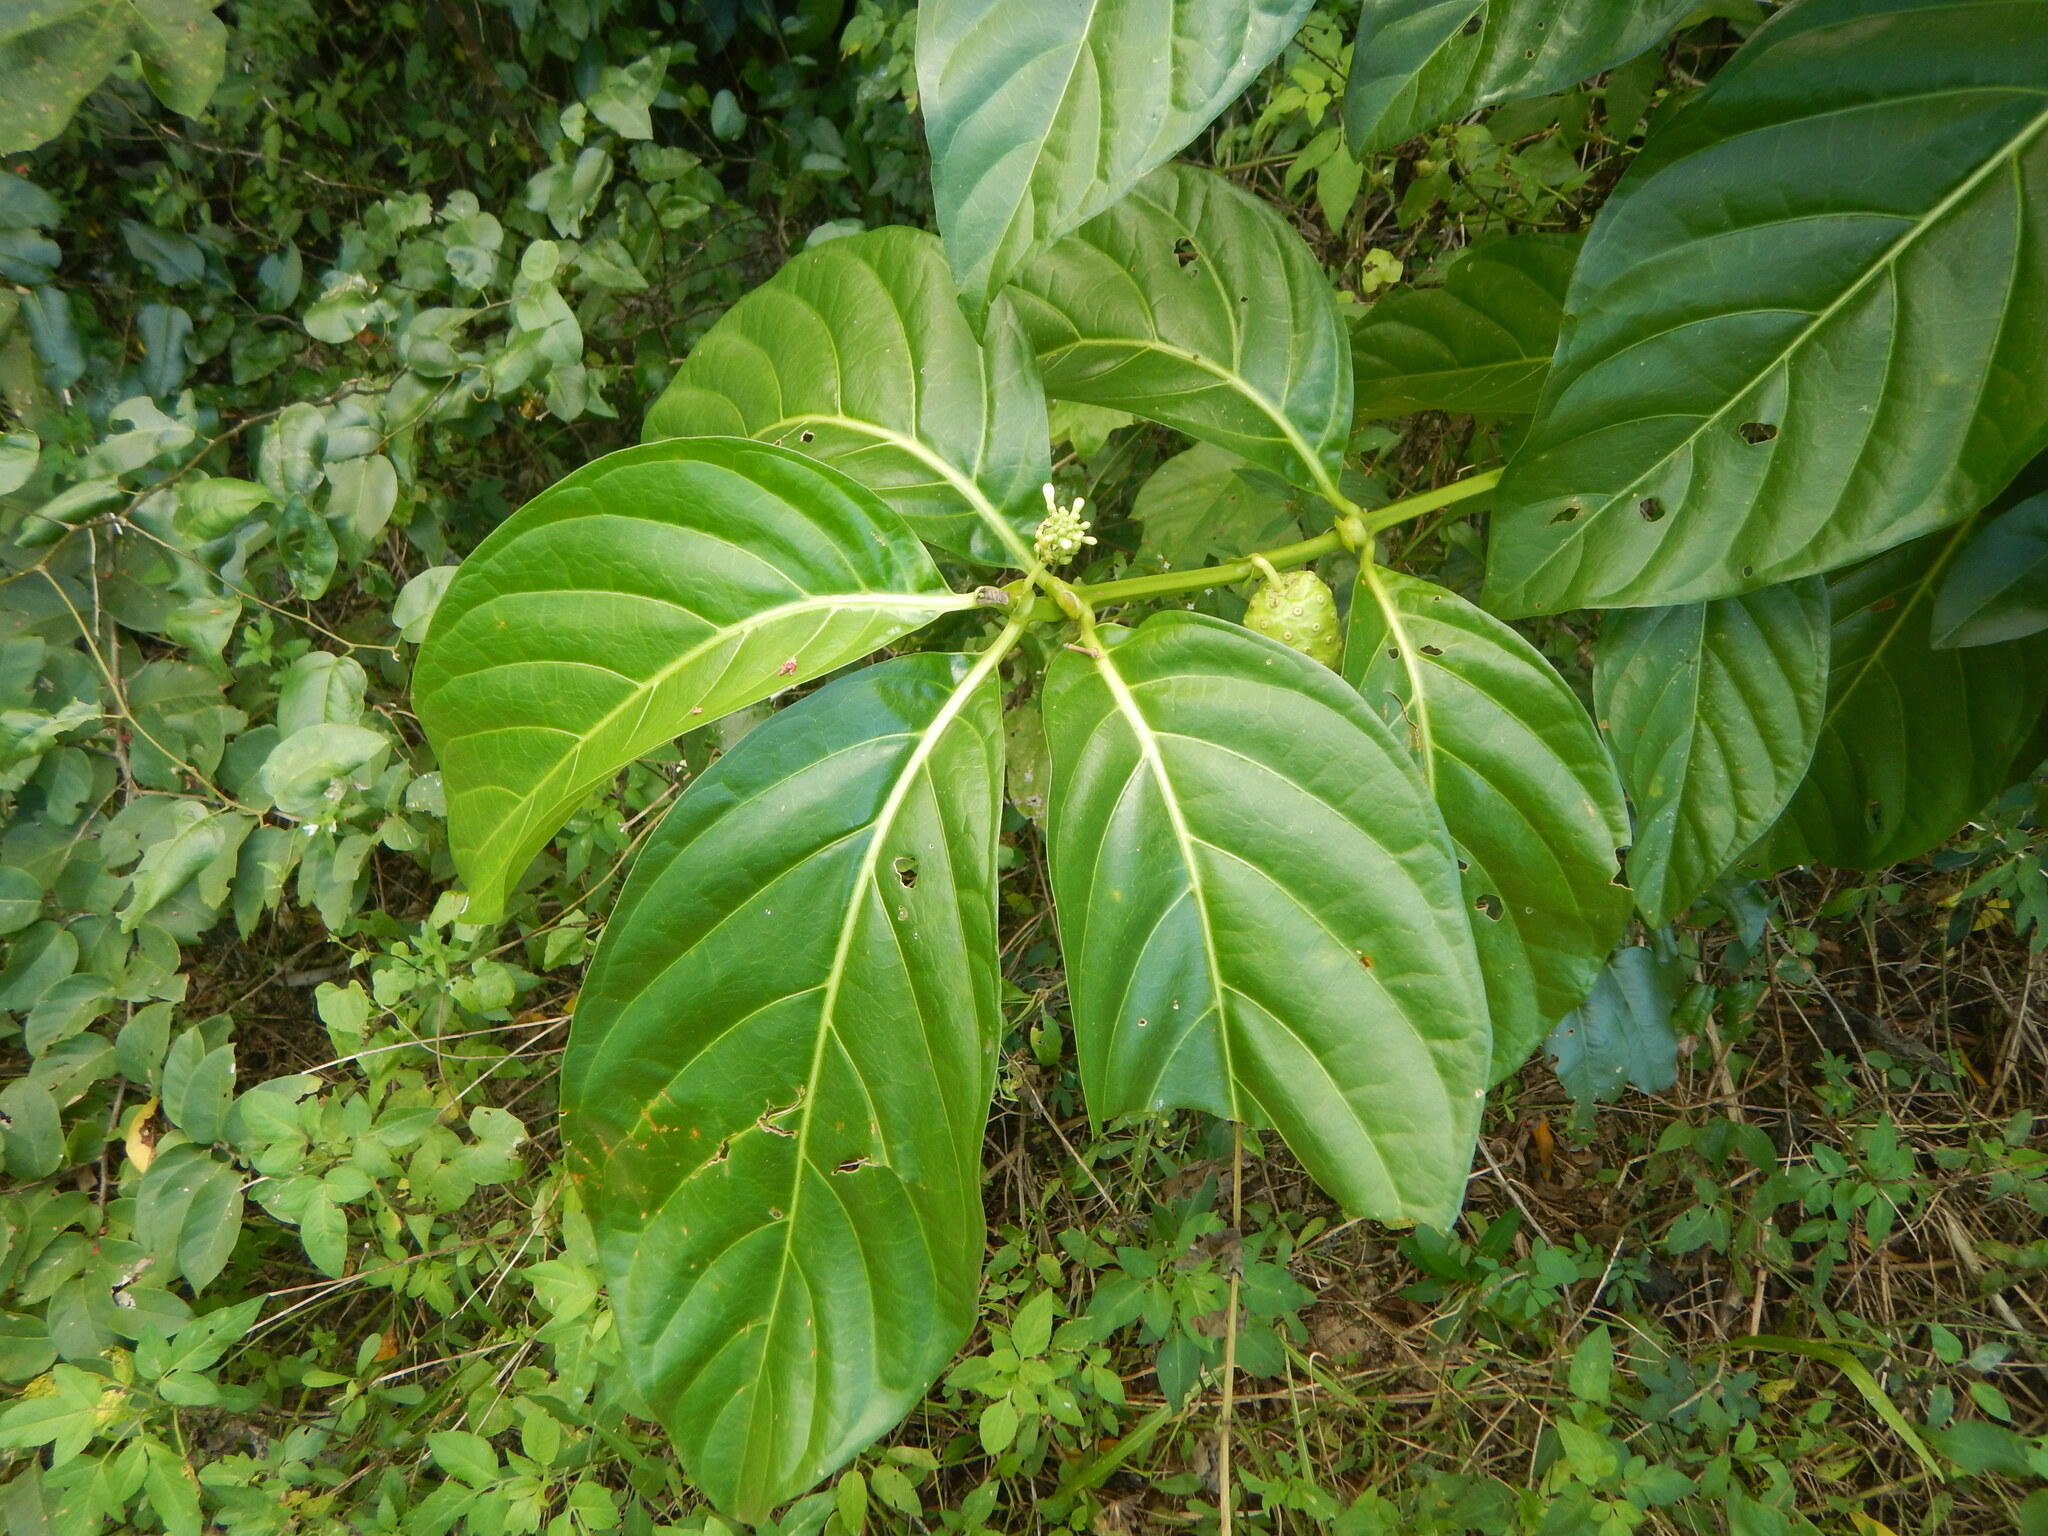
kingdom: Plantae
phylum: Tracheophyta
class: Magnoliopsida
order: Gentianales
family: Rubiaceae
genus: Morinda
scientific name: Morinda citrifolia
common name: Indian-mulberry
